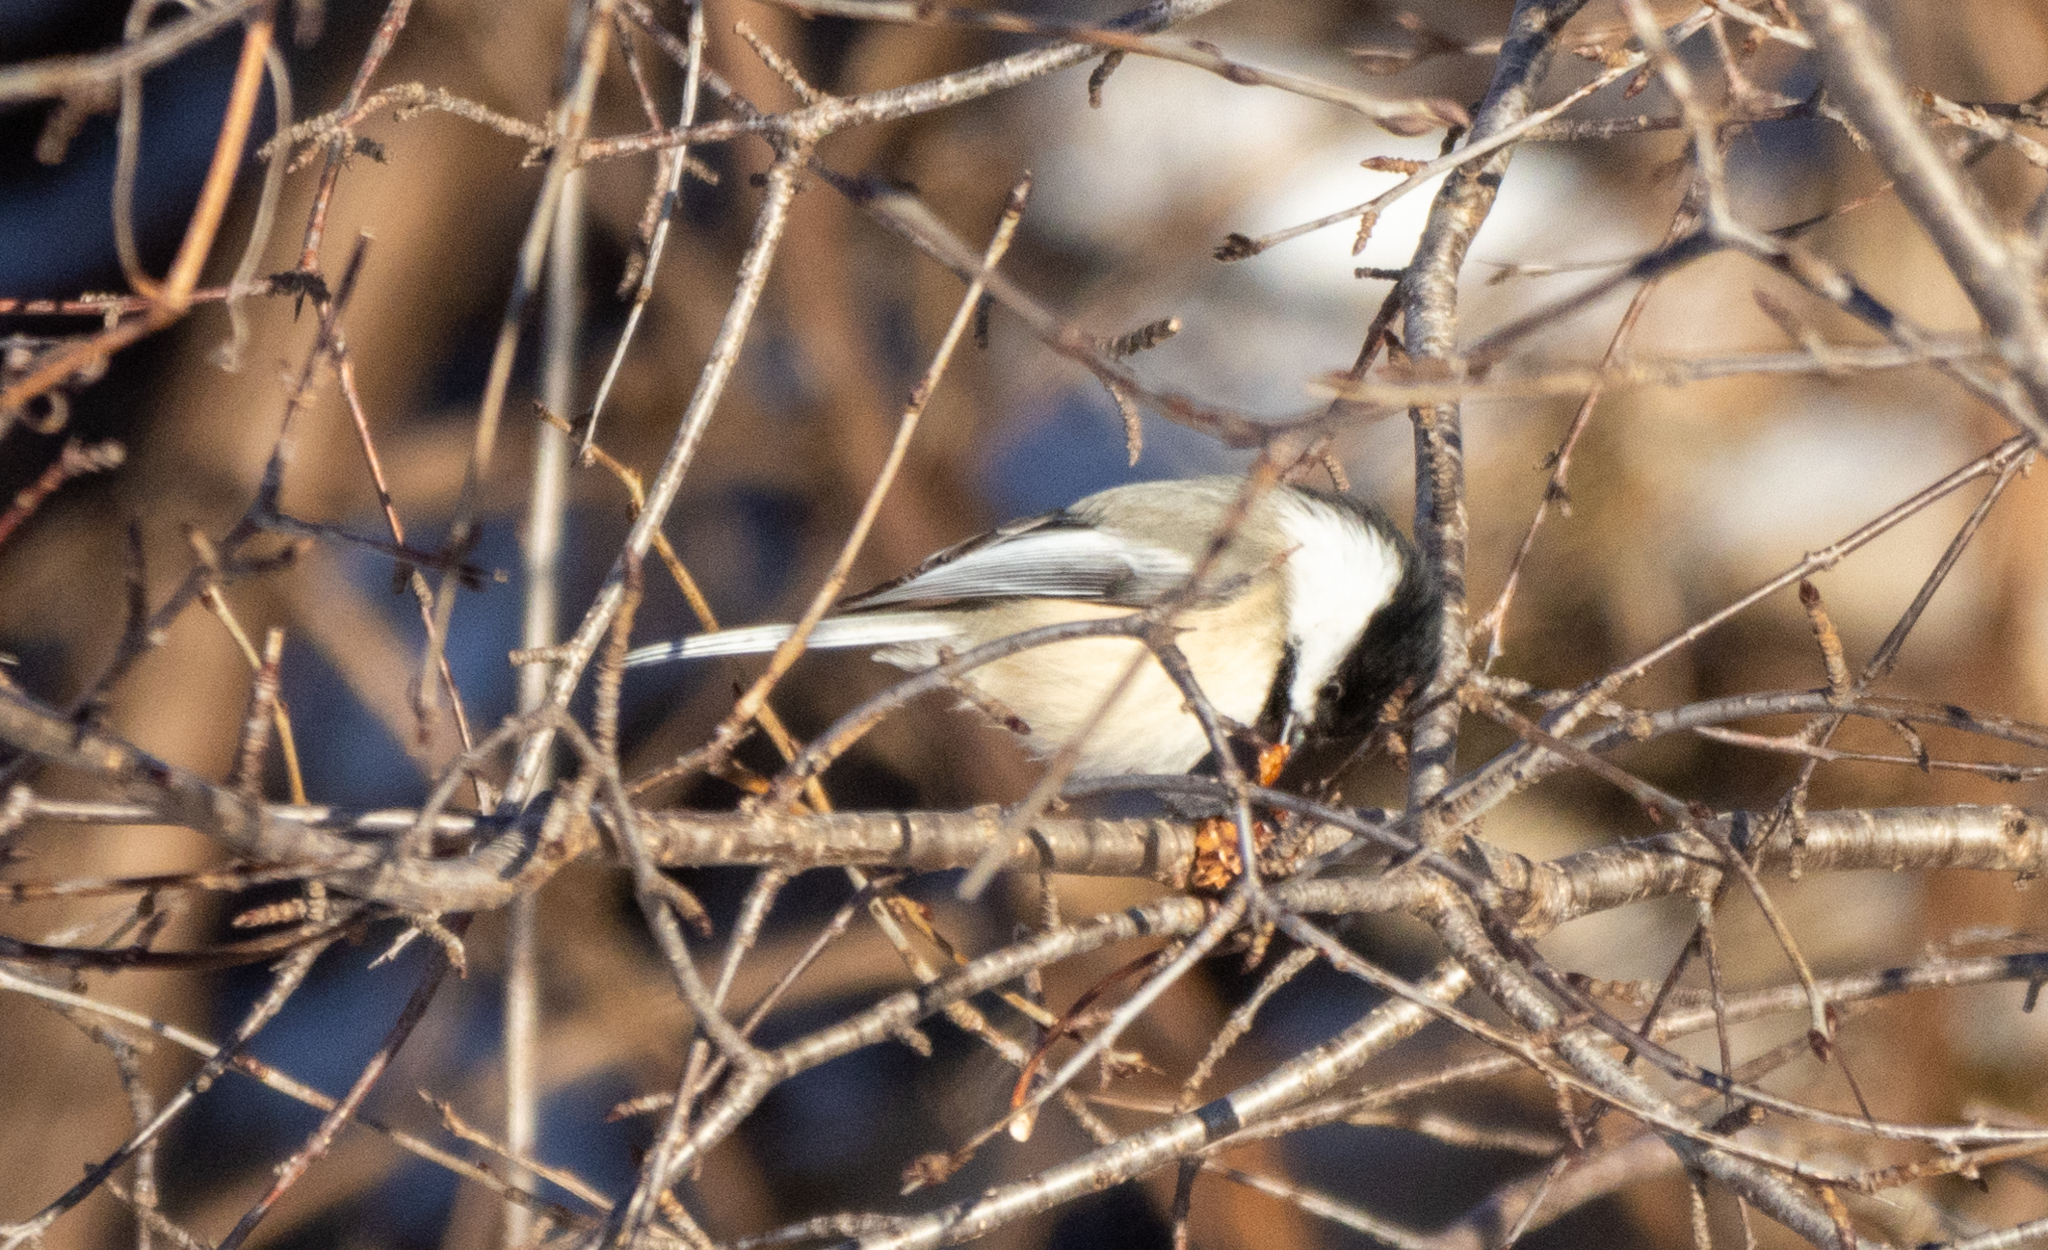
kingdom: Animalia
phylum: Chordata
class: Aves
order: Passeriformes
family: Paridae
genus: Poecile
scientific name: Poecile atricapillus
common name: Black-capped chickadee
